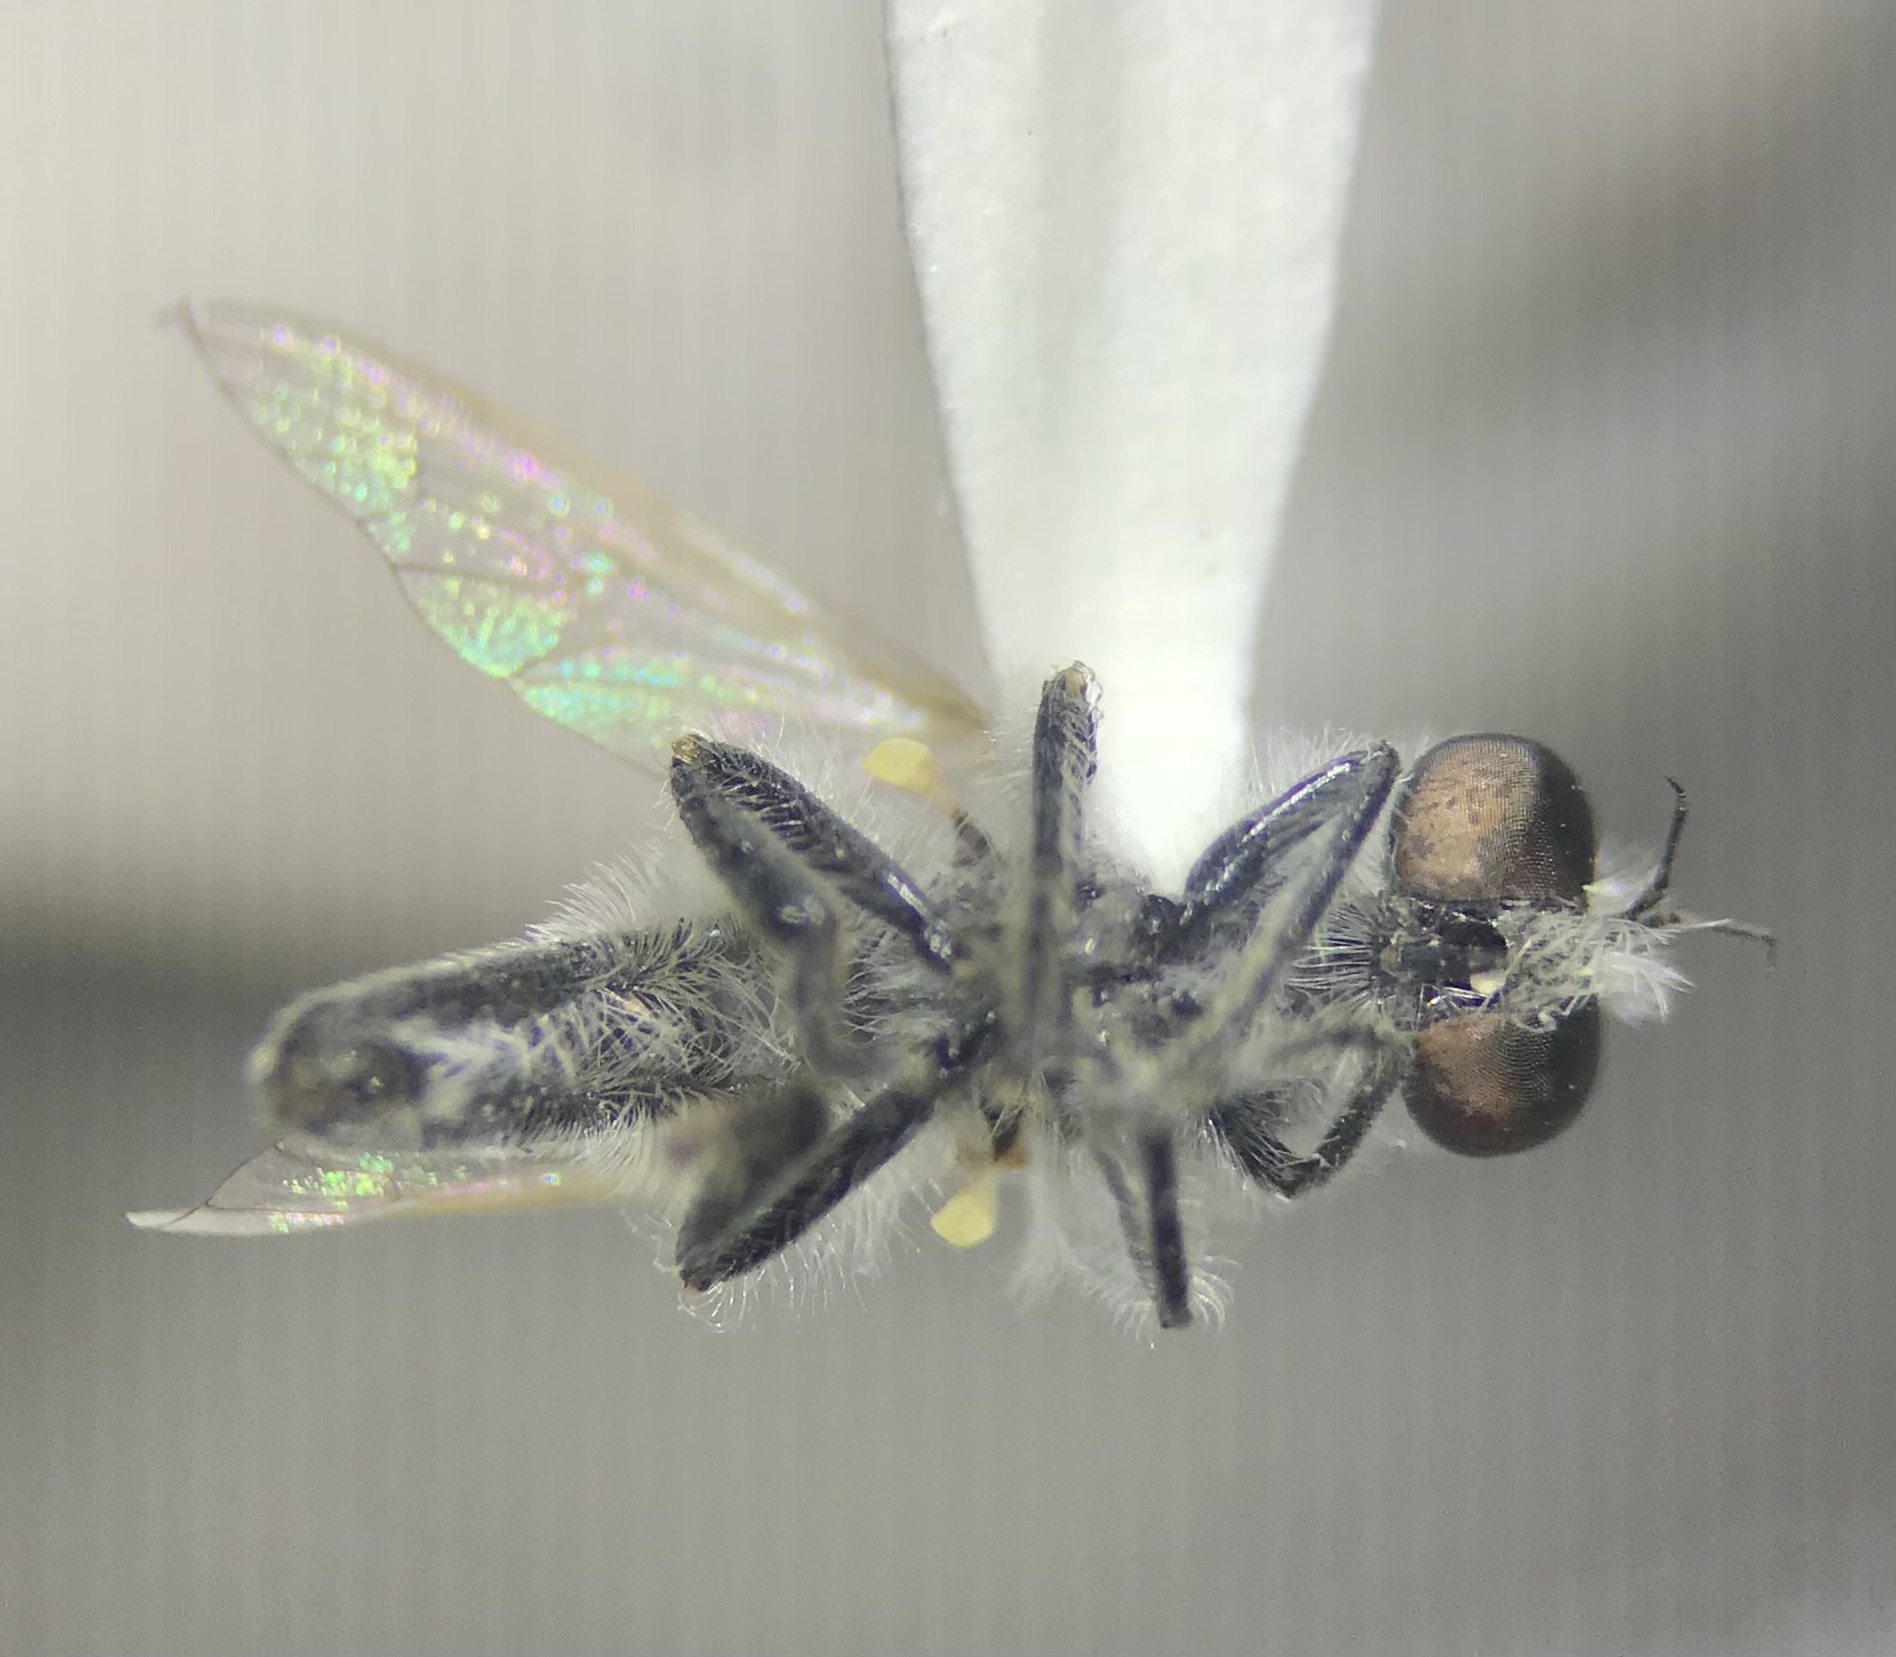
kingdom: Animalia
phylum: Arthropoda
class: Insecta
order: Diptera
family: Asilidae
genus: Holopogon
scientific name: Holopogon seniculus
